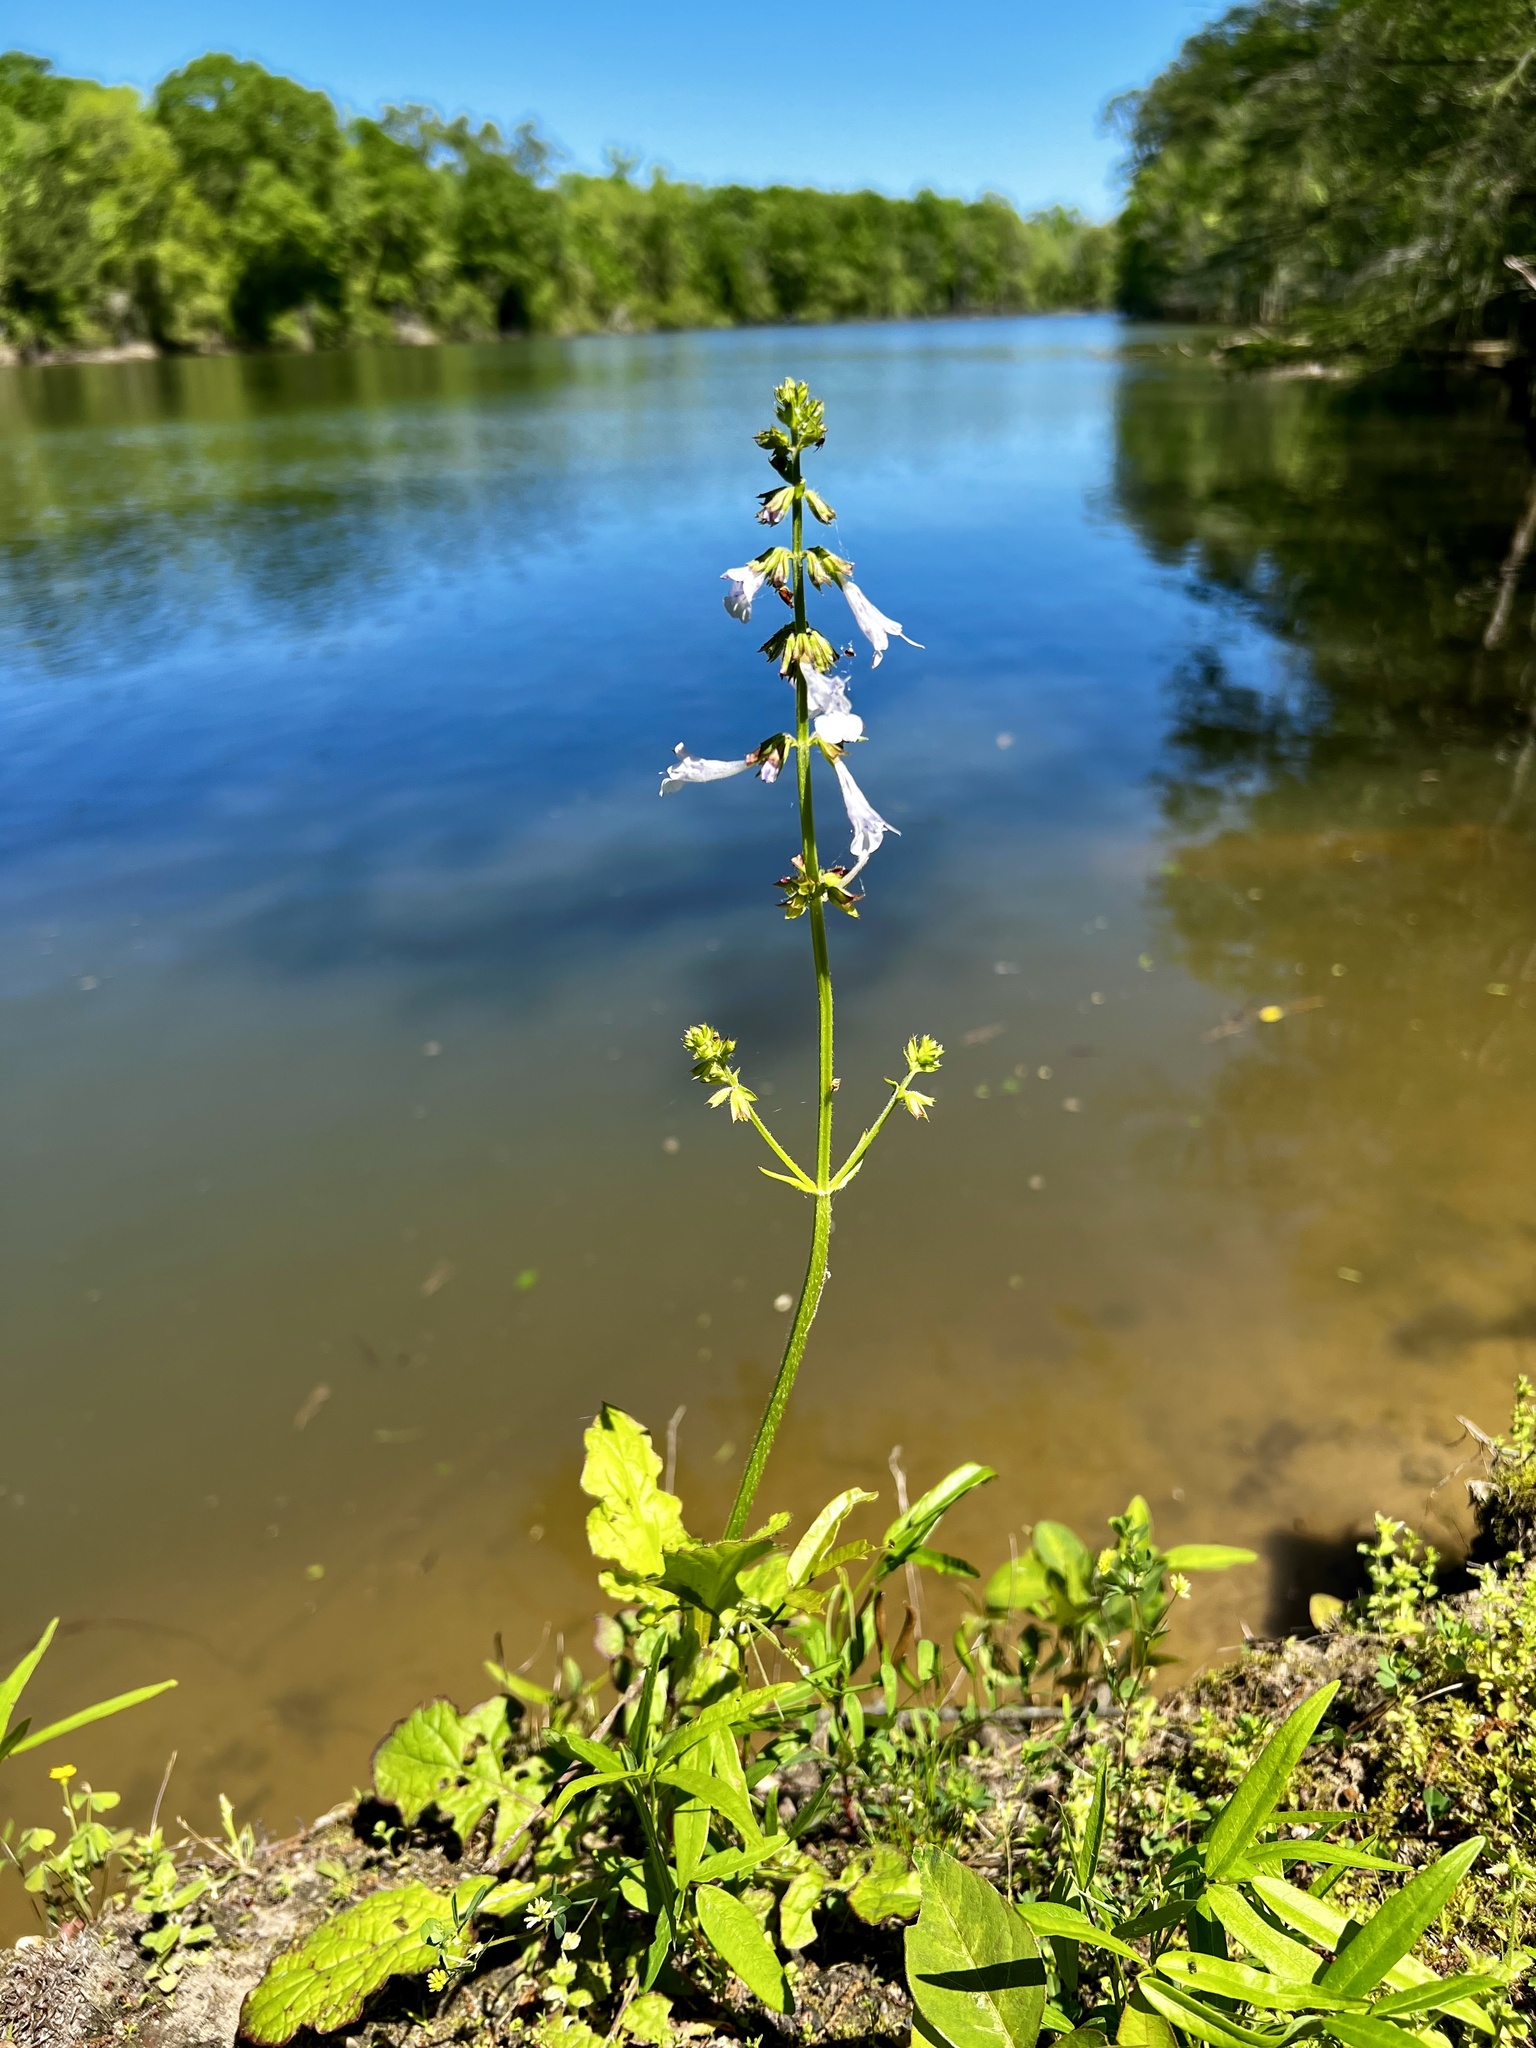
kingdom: Plantae
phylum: Tracheophyta
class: Magnoliopsida
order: Lamiales
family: Lamiaceae
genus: Salvia
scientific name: Salvia lyrata
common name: Cancerweed
